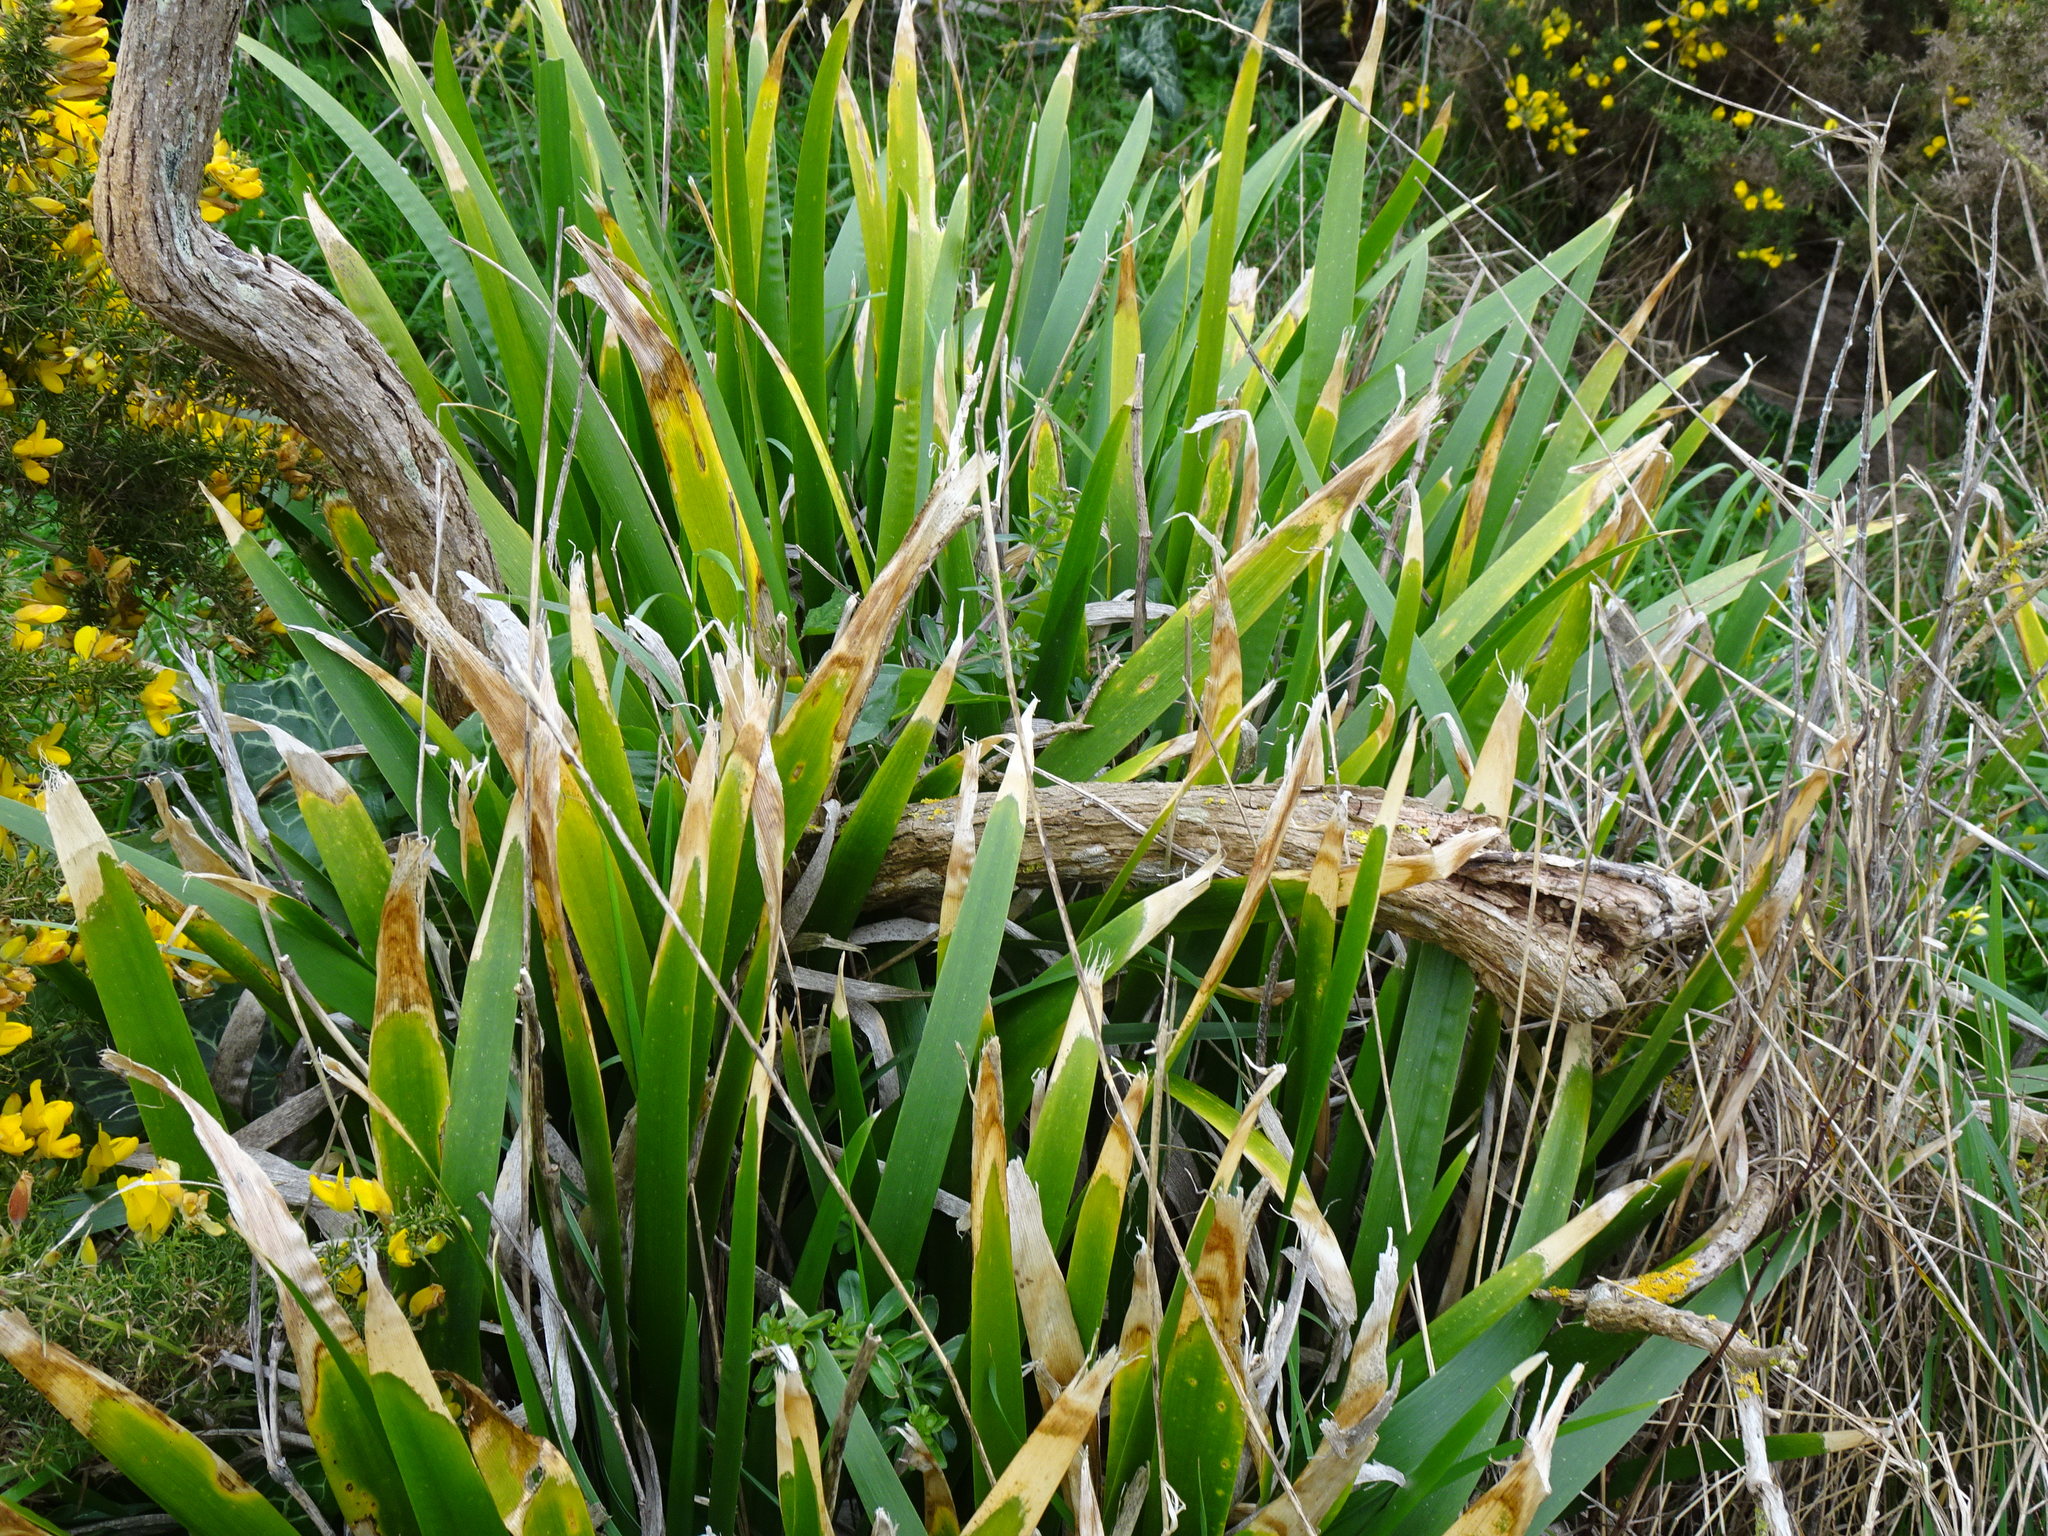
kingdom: Plantae
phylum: Tracheophyta
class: Liliopsida
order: Asparagales
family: Iridaceae
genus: Iris
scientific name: Iris foetidissima
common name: Stinking iris
